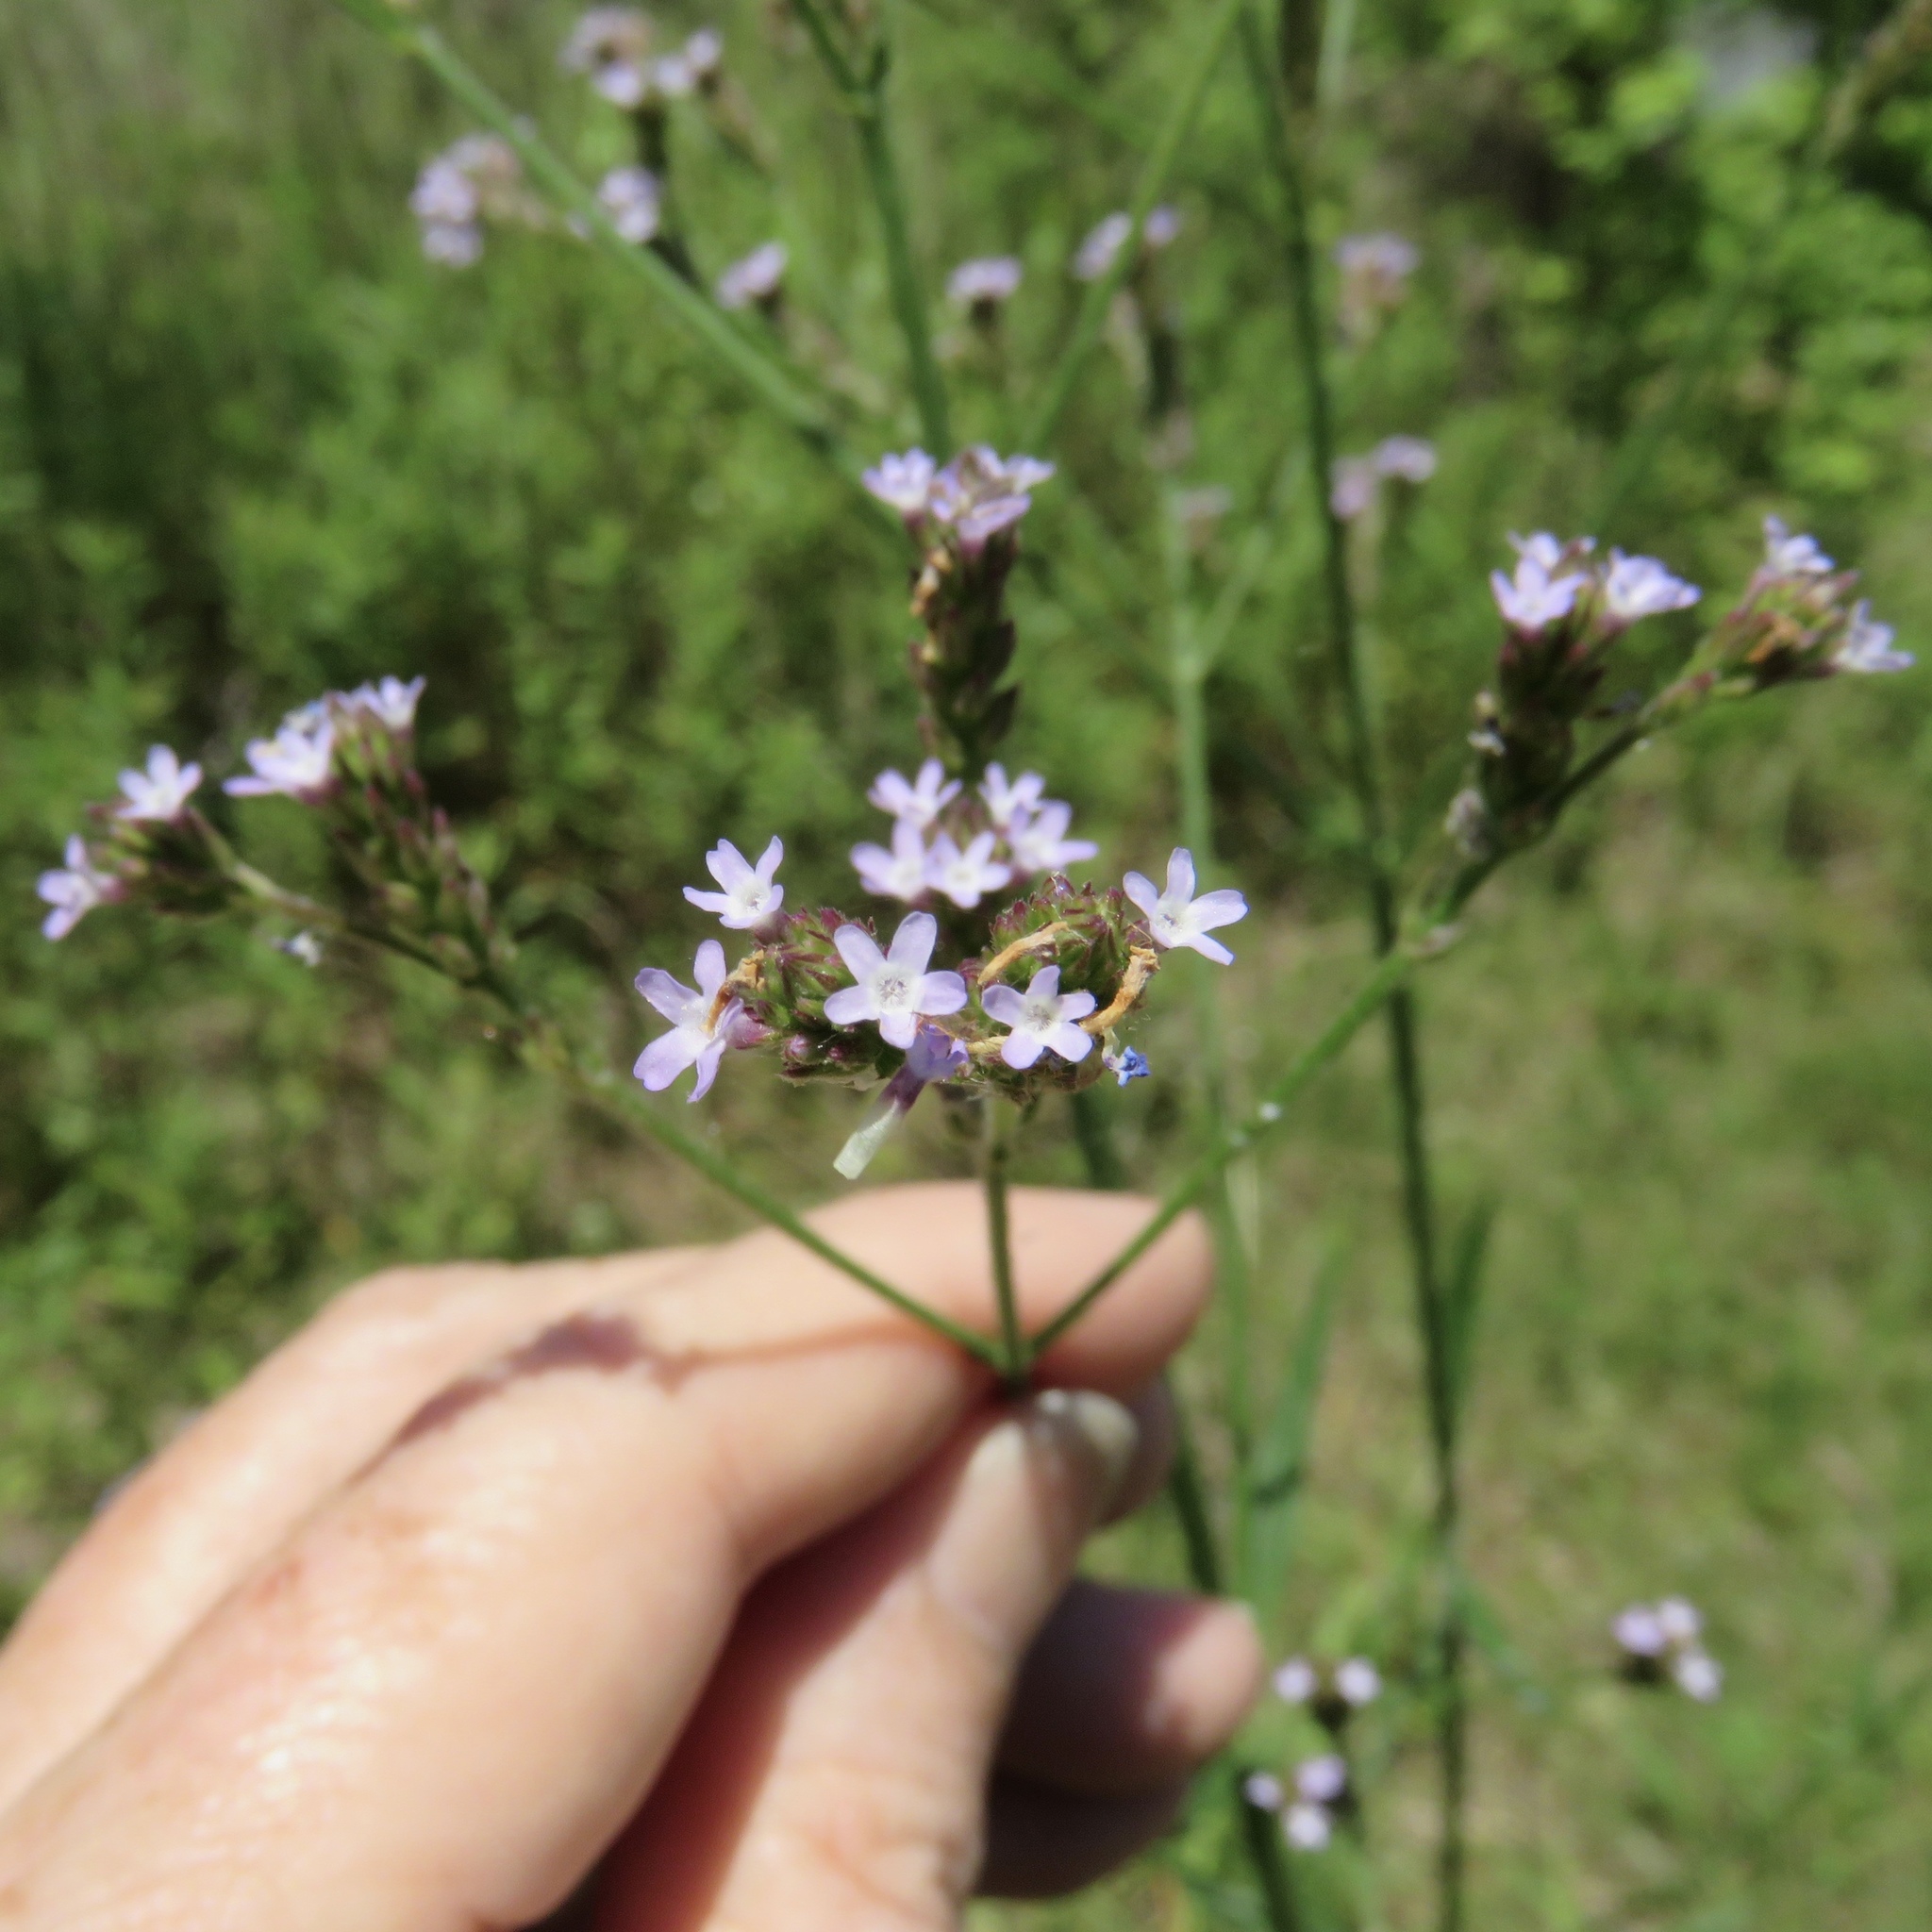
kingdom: Plantae
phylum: Tracheophyta
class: Magnoliopsida
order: Lamiales
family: Verbenaceae
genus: Verbena
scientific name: Verbena brasiliensis
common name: Brazilian vervain
